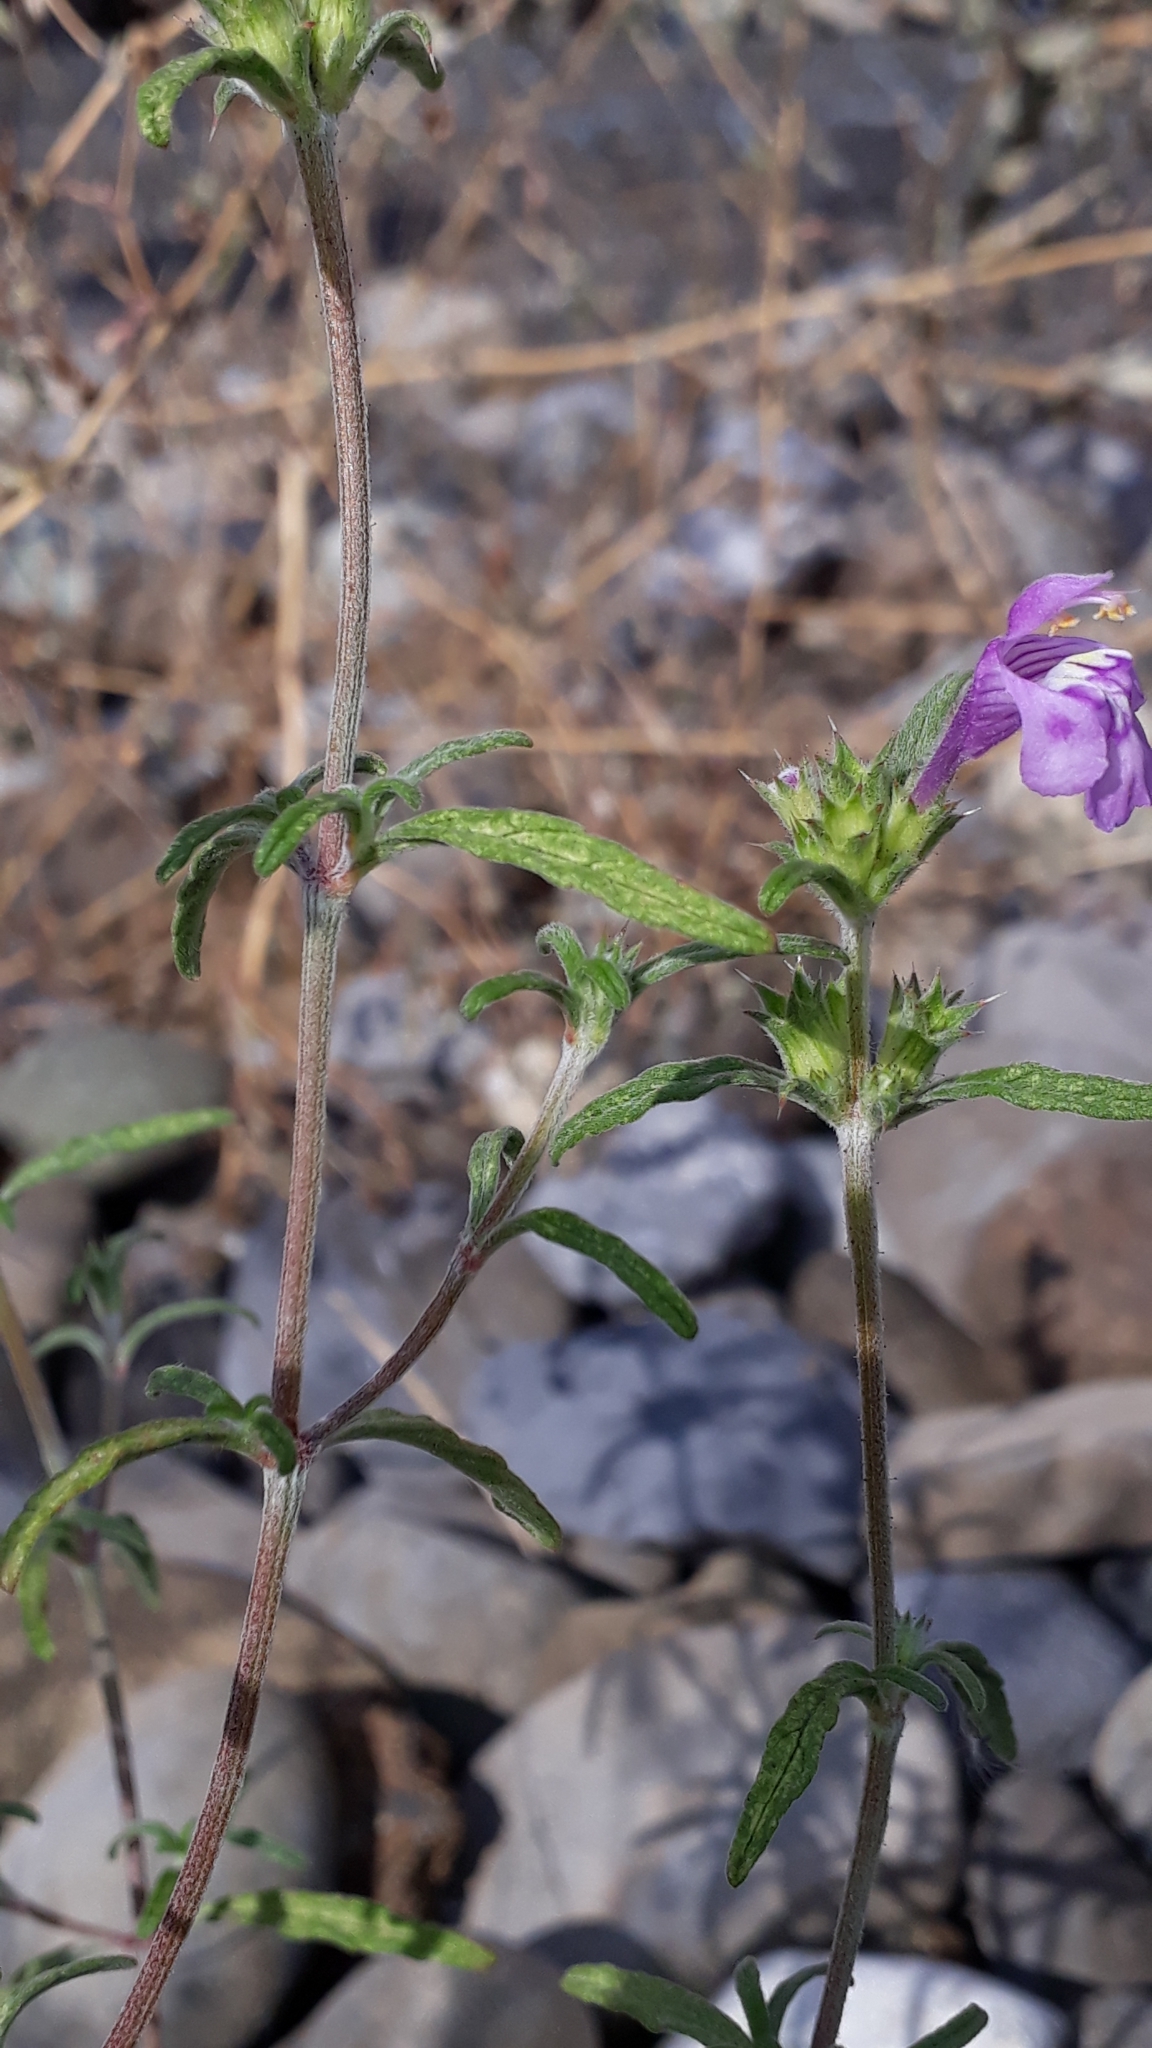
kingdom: Plantae
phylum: Tracheophyta
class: Magnoliopsida
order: Lamiales
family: Lamiaceae
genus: Galeopsis
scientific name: Galeopsis angustifolia
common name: Red hemp-nettle
